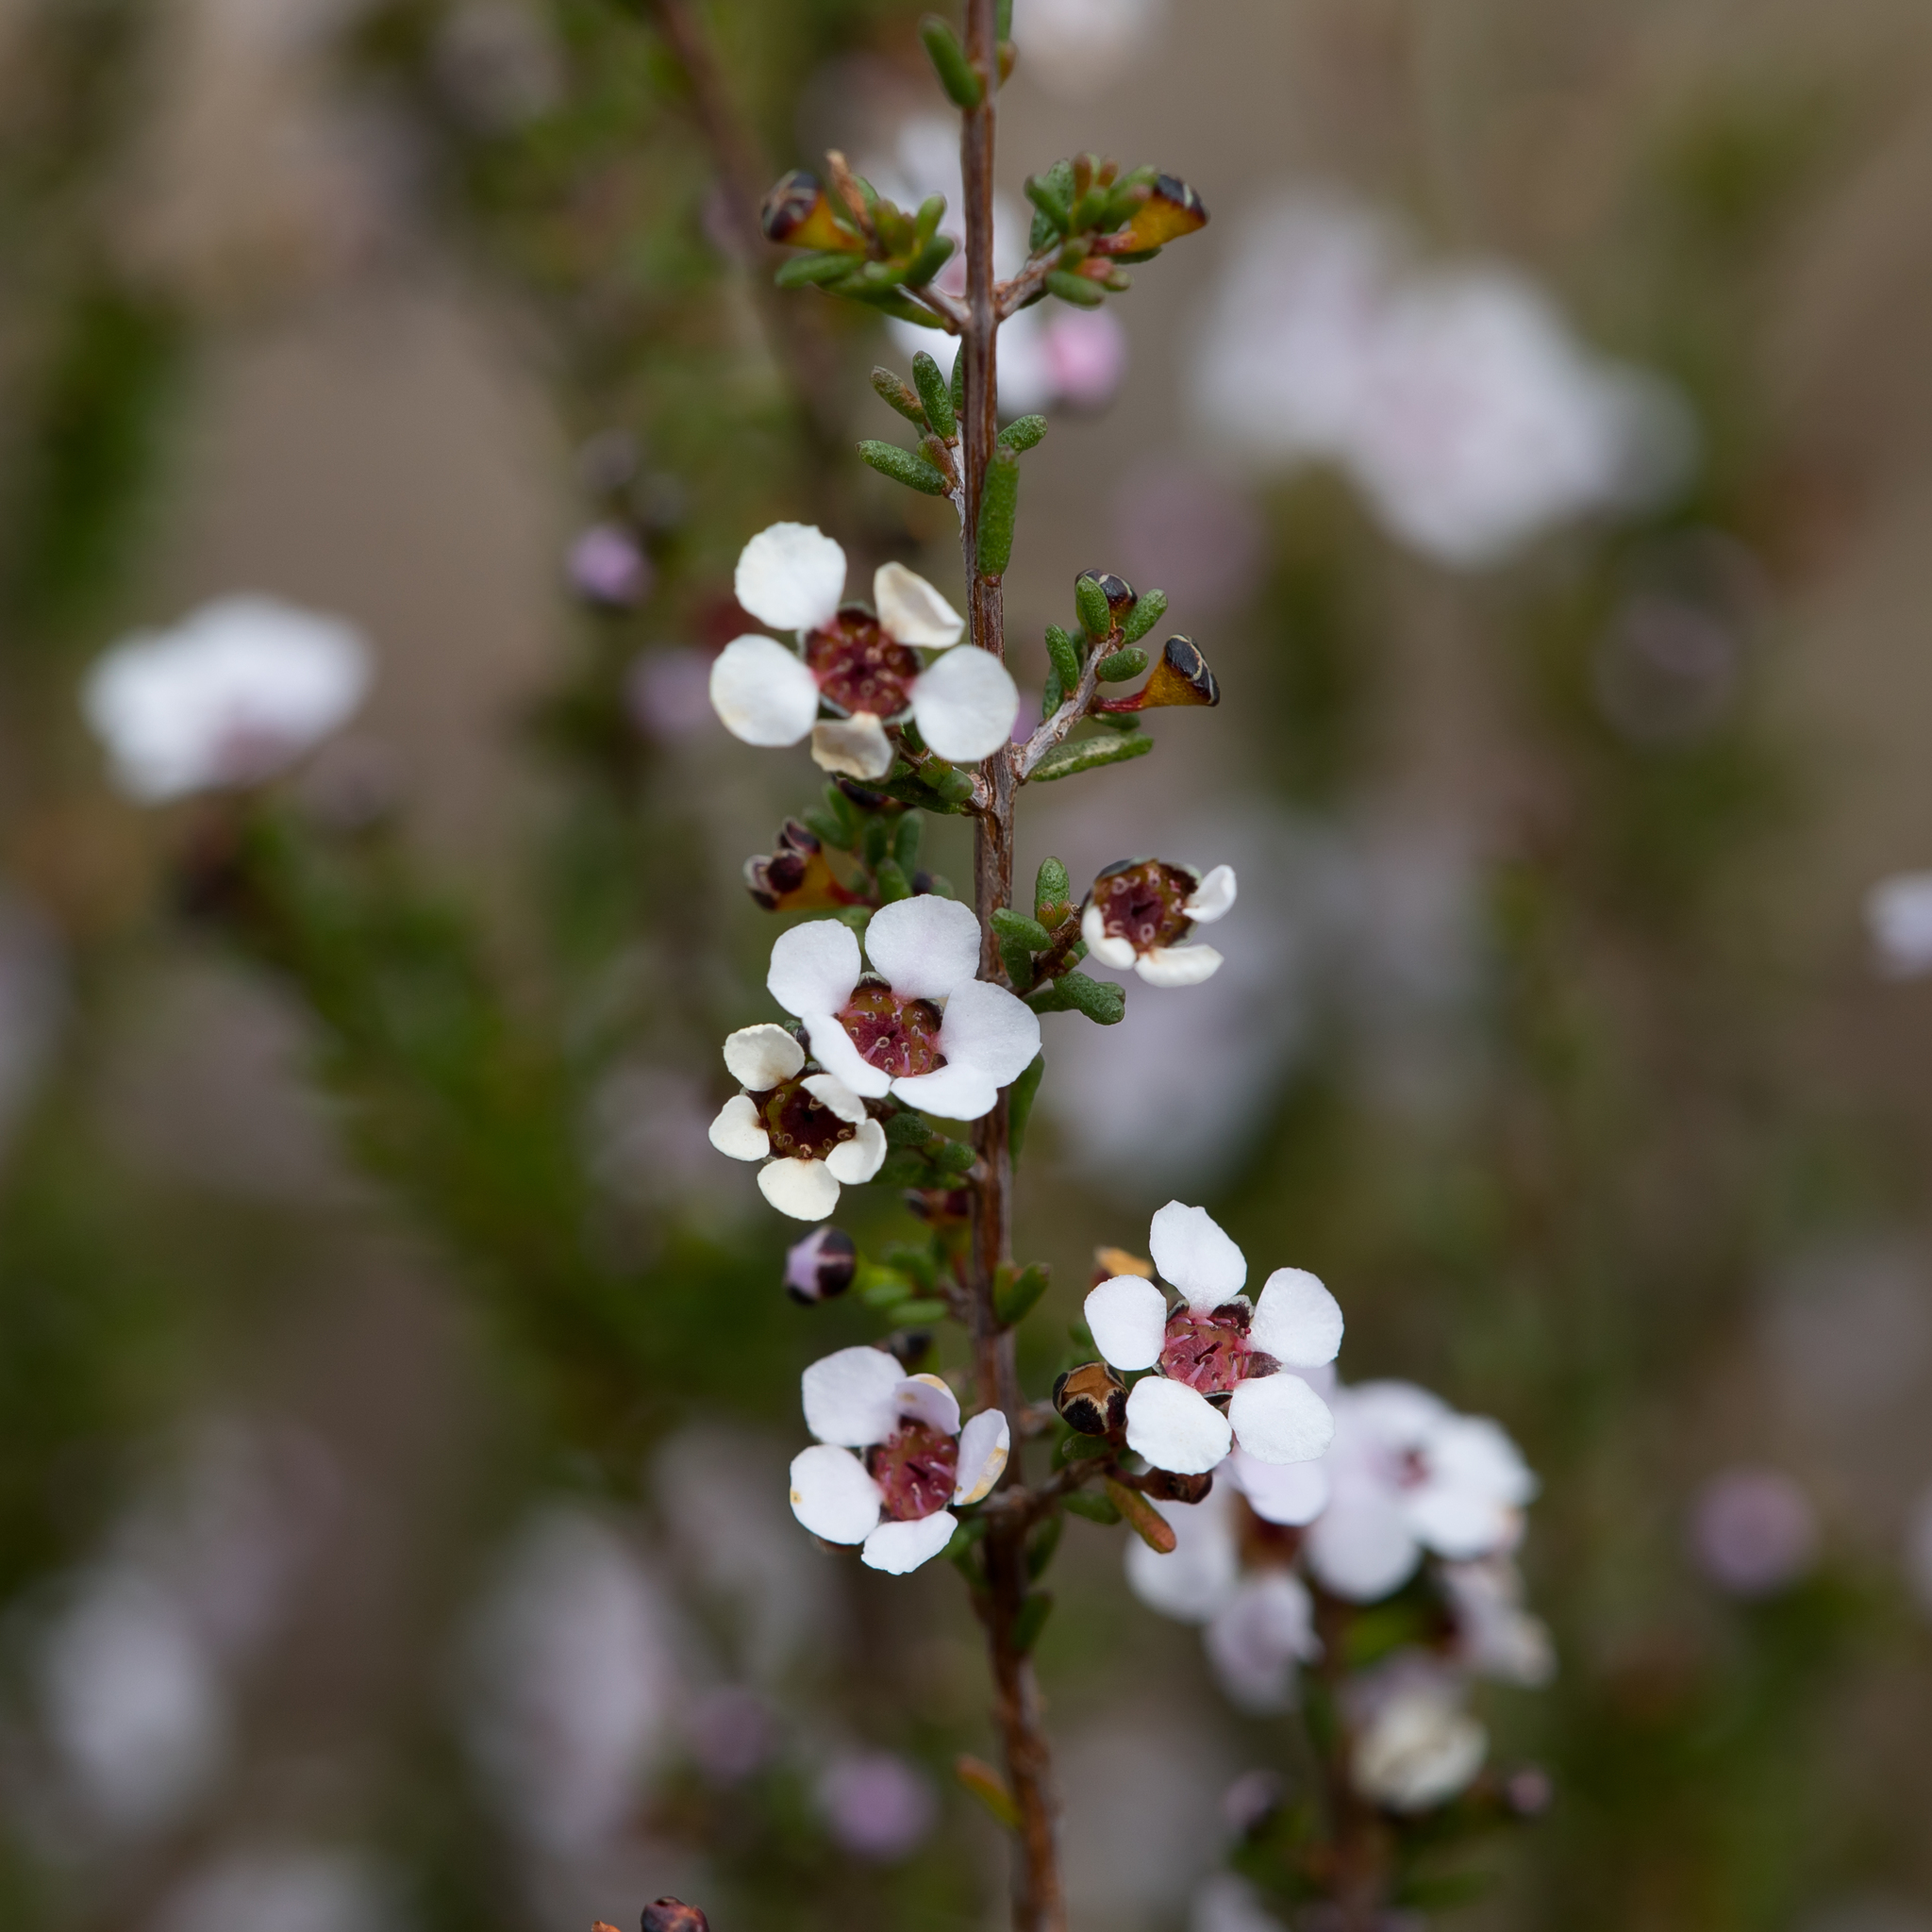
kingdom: Plantae
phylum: Tracheophyta
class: Magnoliopsida
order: Myrtales
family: Myrtaceae
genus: Rinzia
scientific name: Rinzia orientalis
